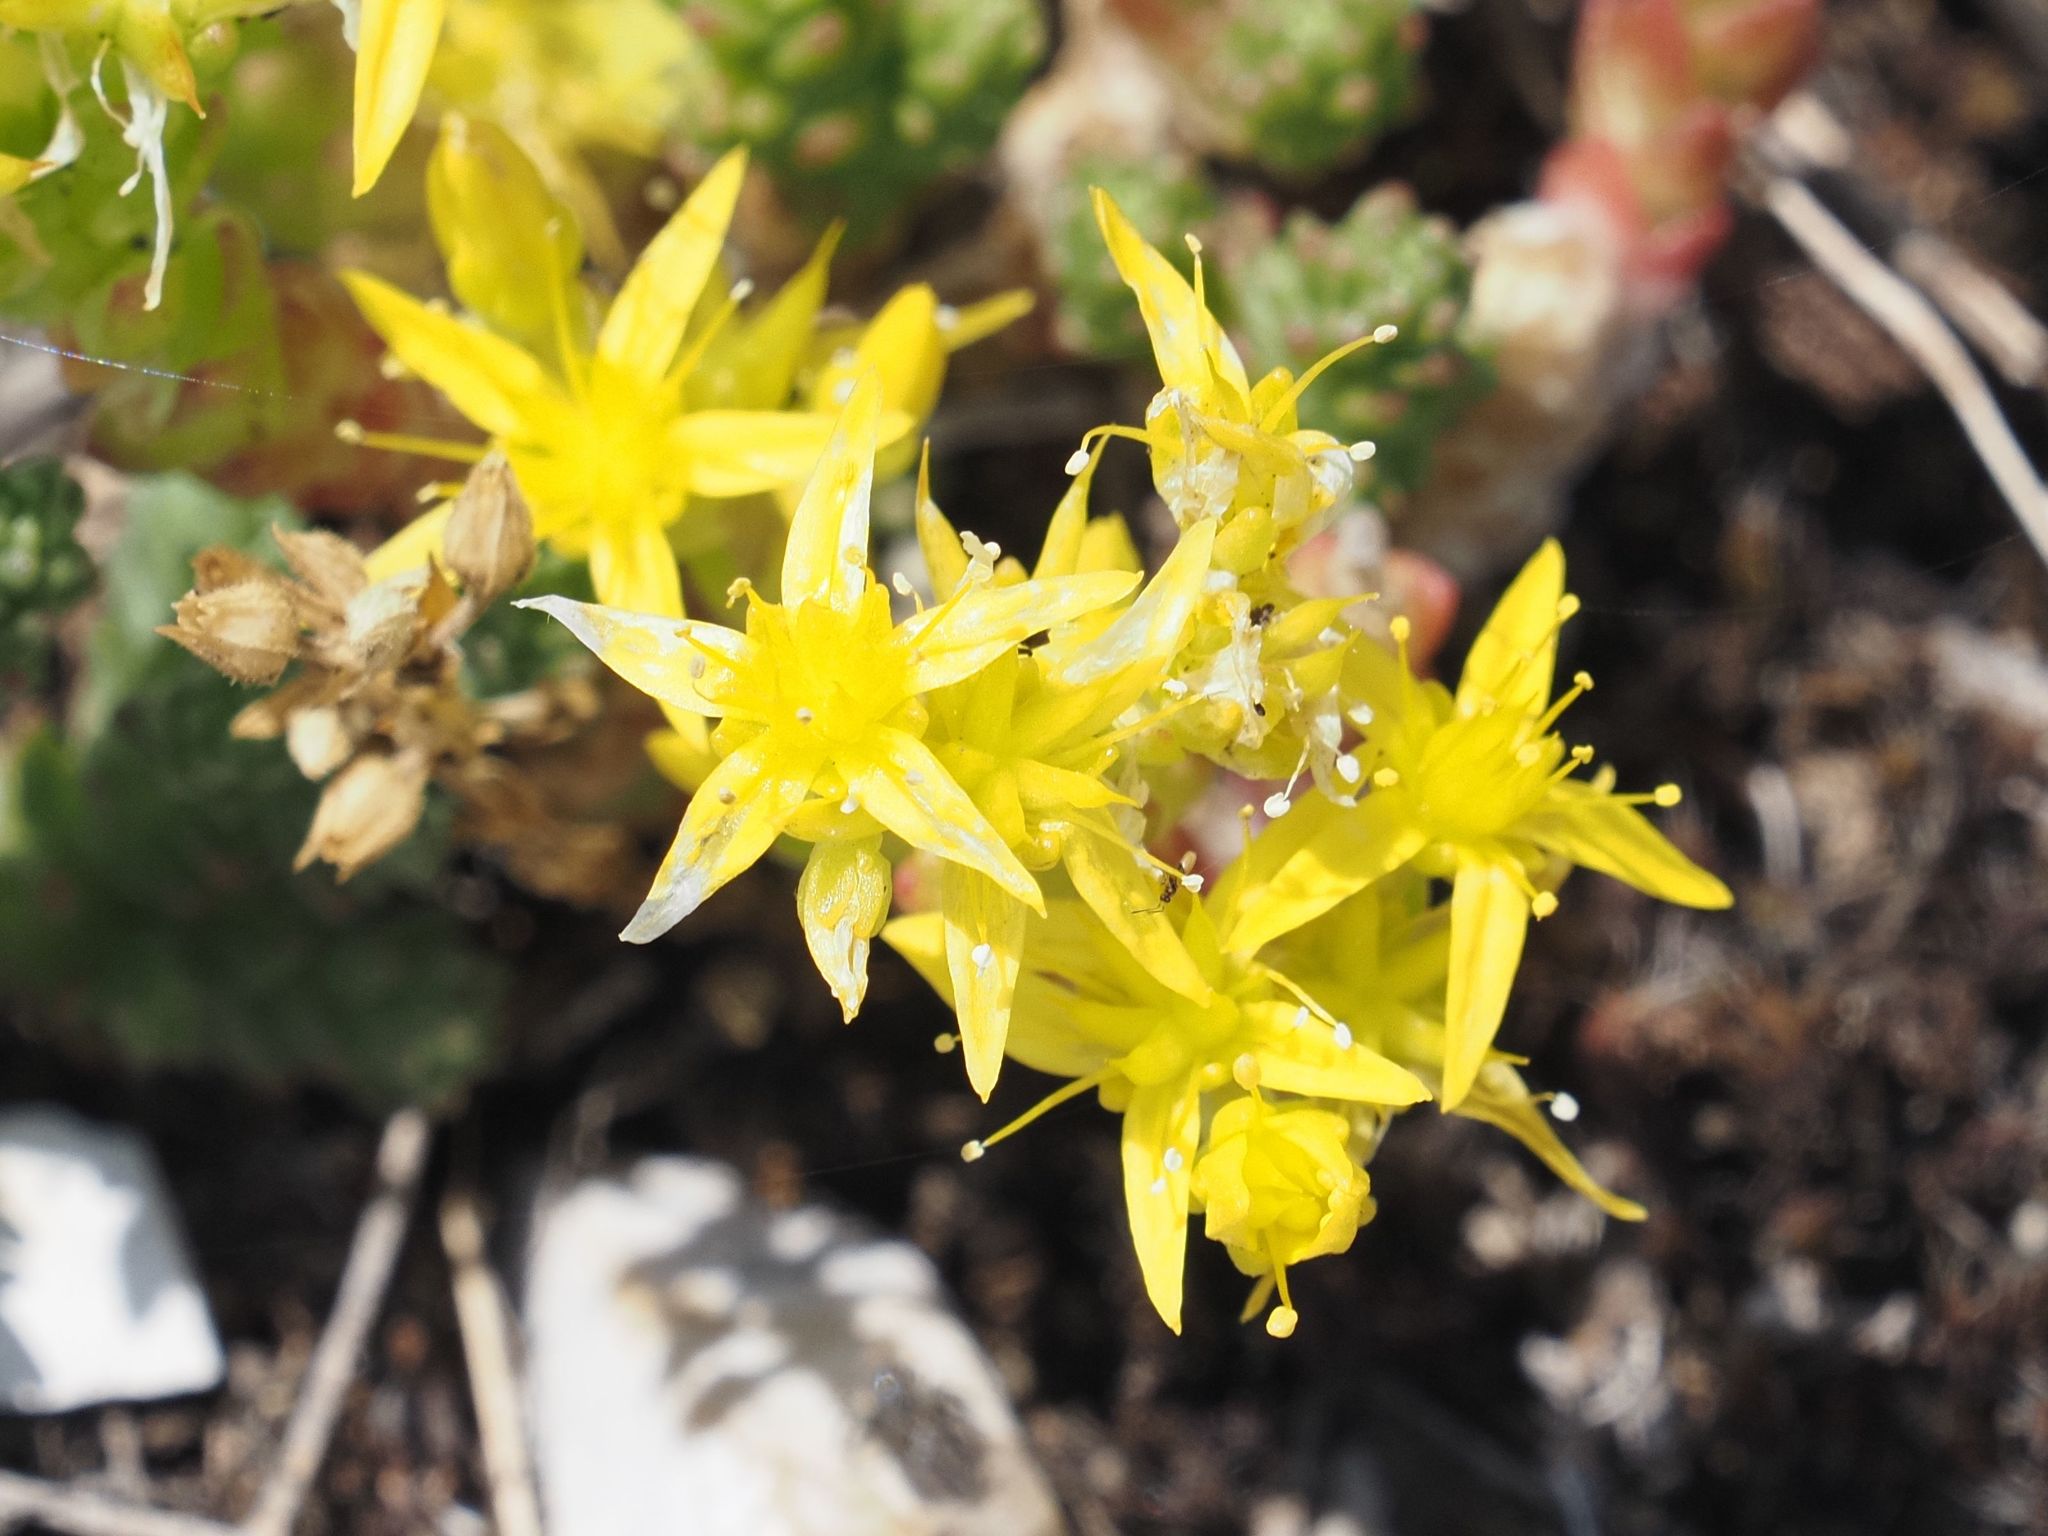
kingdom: Plantae
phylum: Tracheophyta
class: Magnoliopsida
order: Saxifragales
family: Crassulaceae
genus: Sedum
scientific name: Sedum acre
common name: Biting stonecrop
